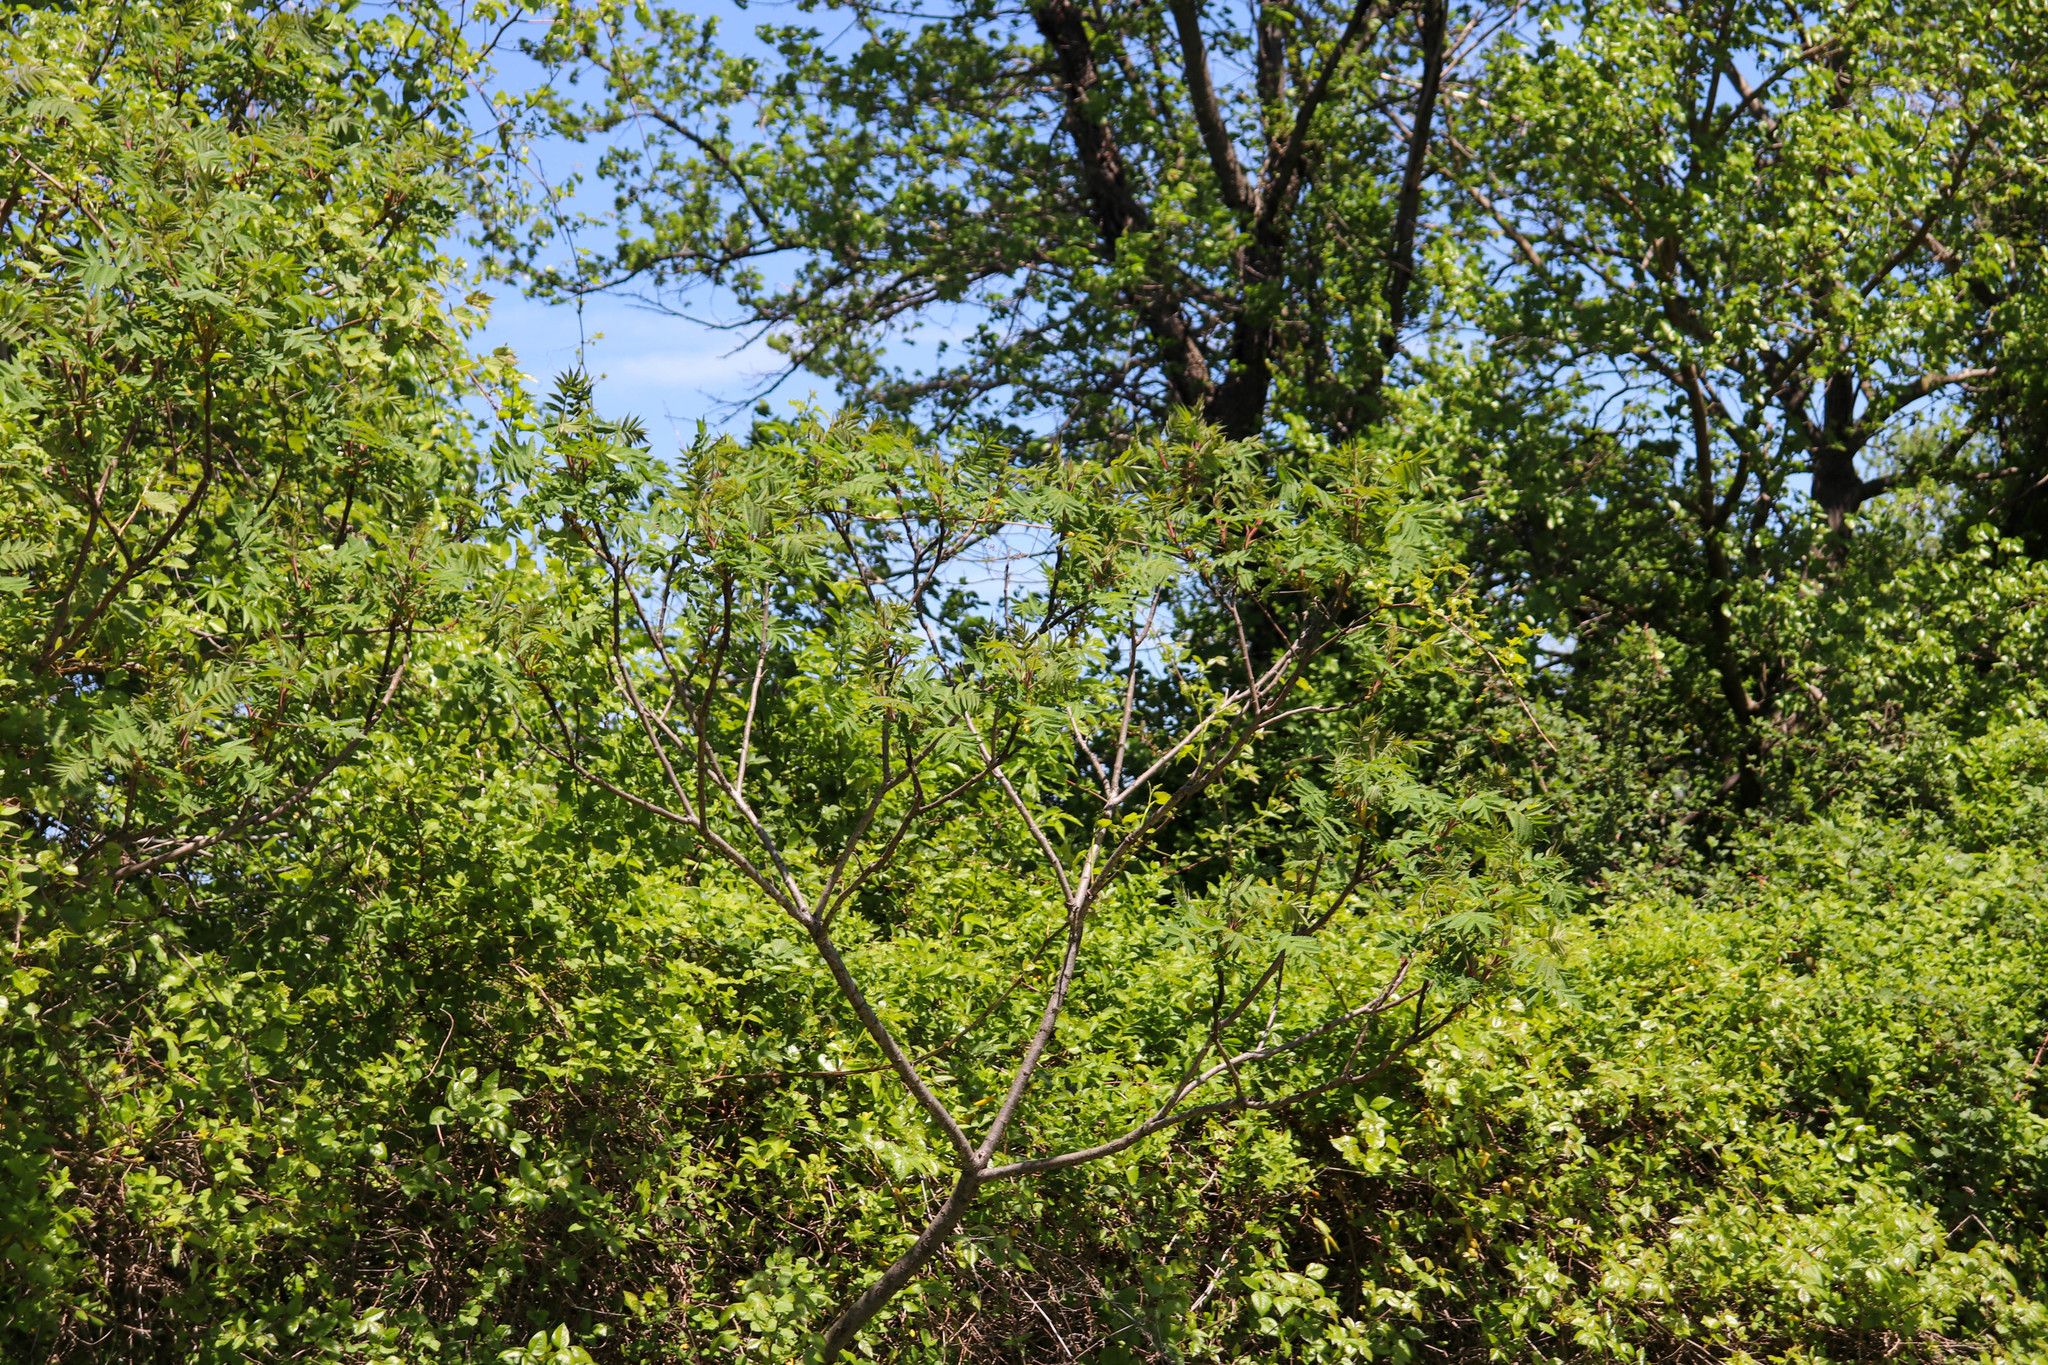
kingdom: Plantae
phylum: Tracheophyta
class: Magnoliopsida
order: Sapindales
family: Anacardiaceae
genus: Rhus
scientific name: Rhus typhina
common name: Staghorn sumac
